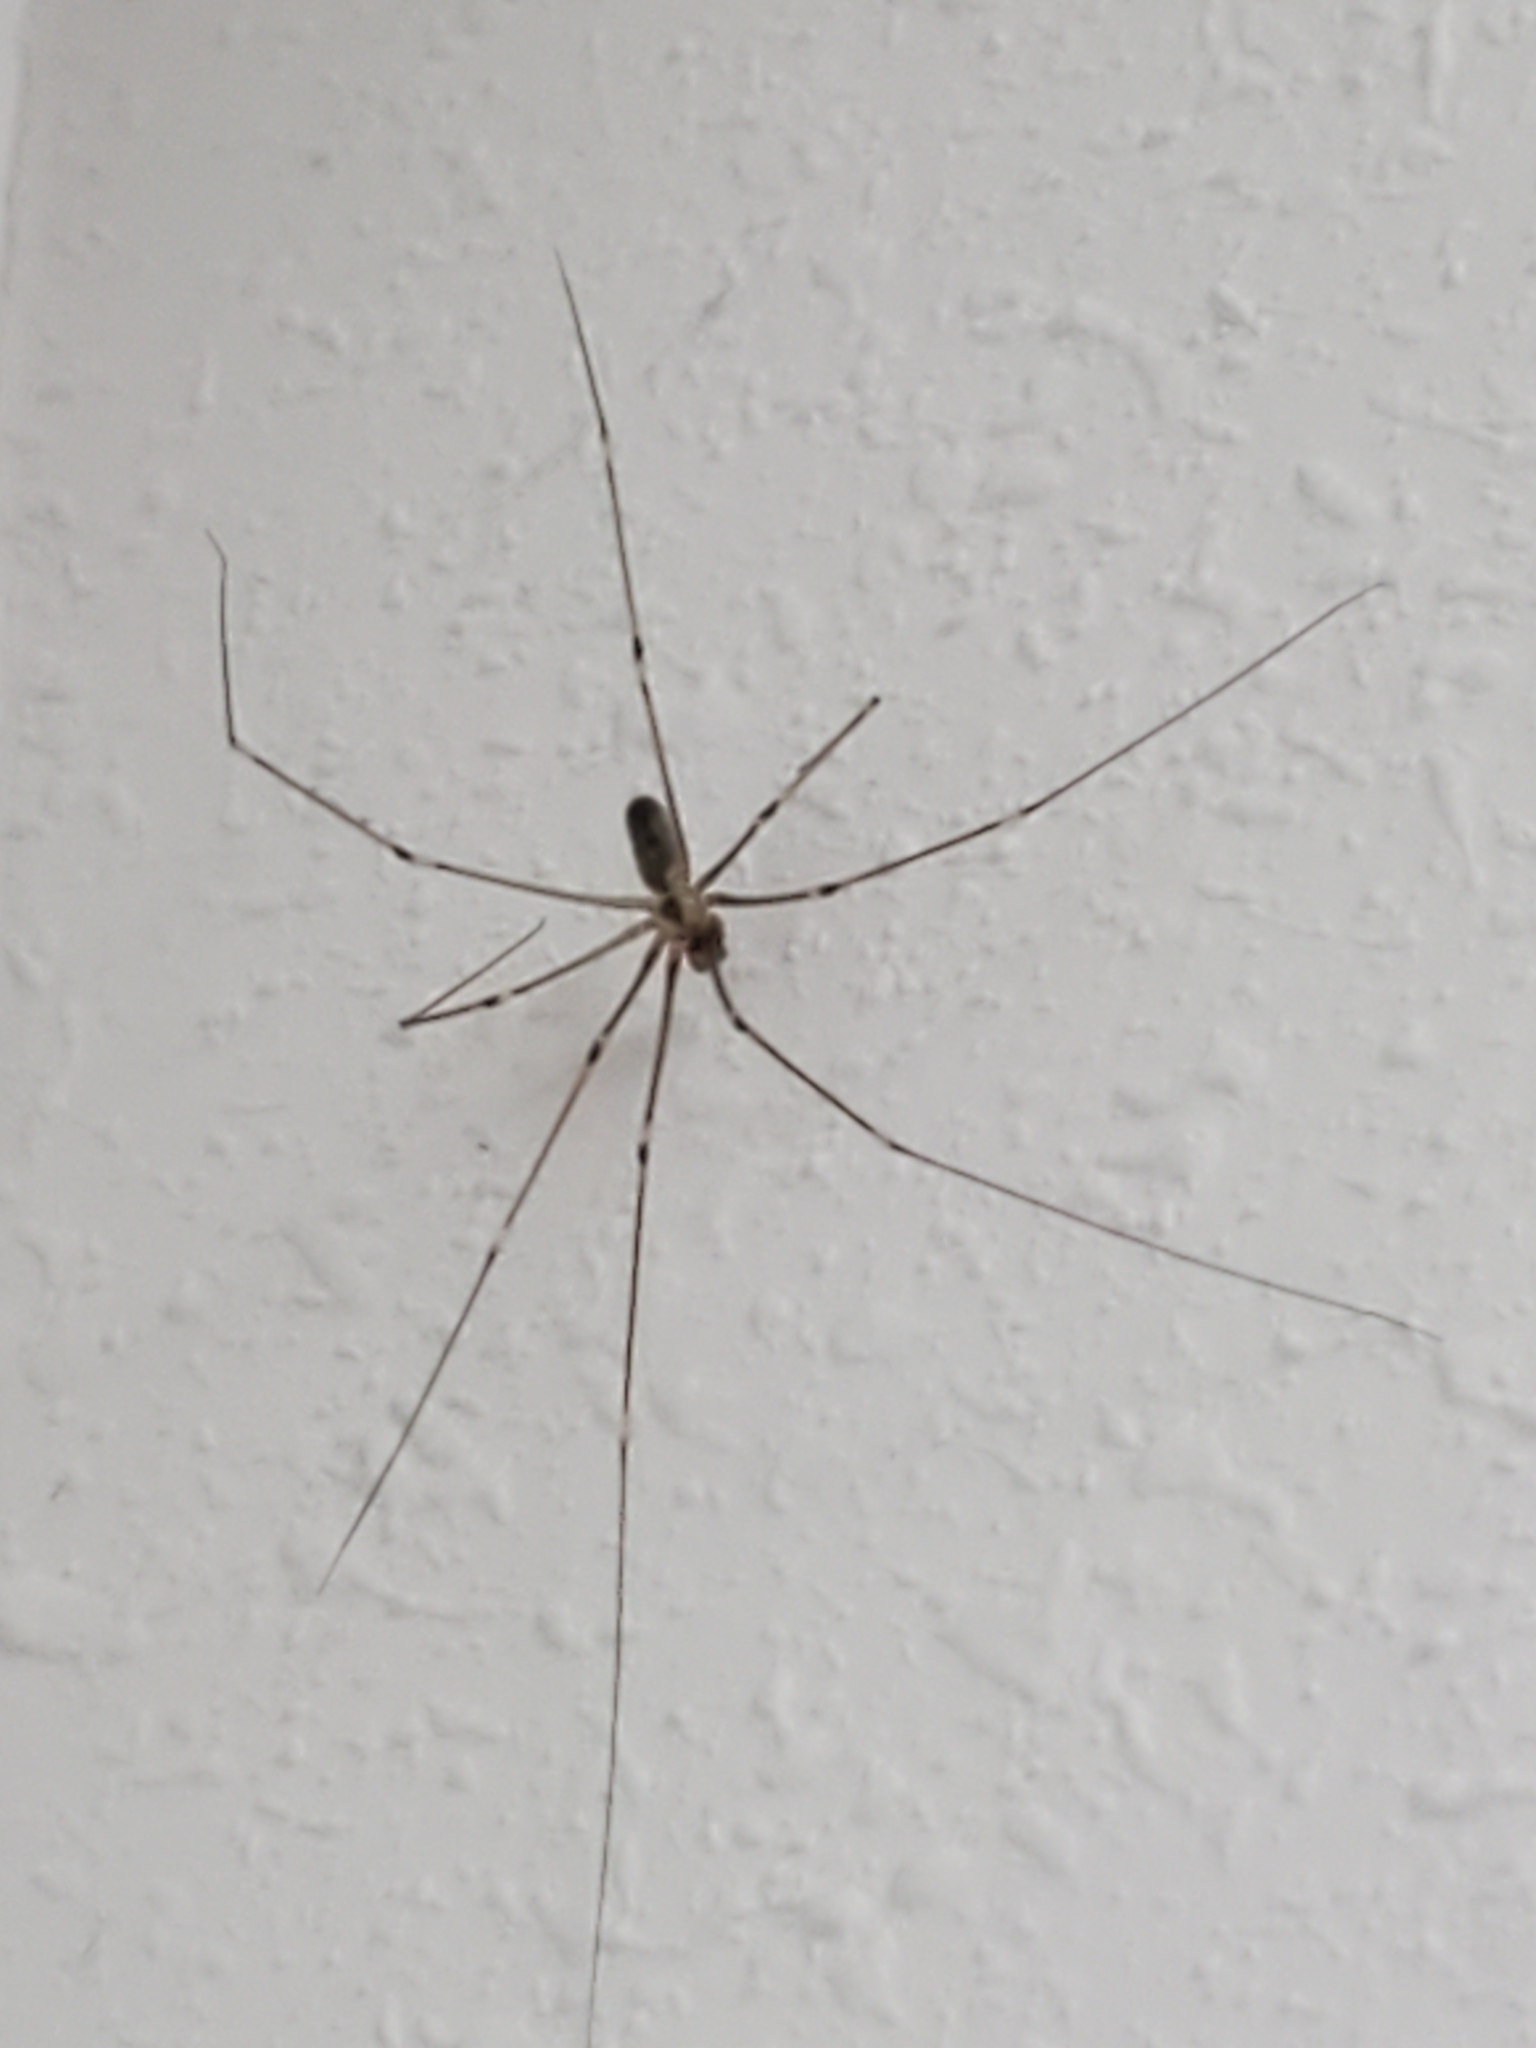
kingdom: Animalia
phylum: Arthropoda
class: Arachnida
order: Araneae
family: Pholcidae
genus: Pholcus
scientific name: Pholcus phalangioides
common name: Longbodied cellar spider
